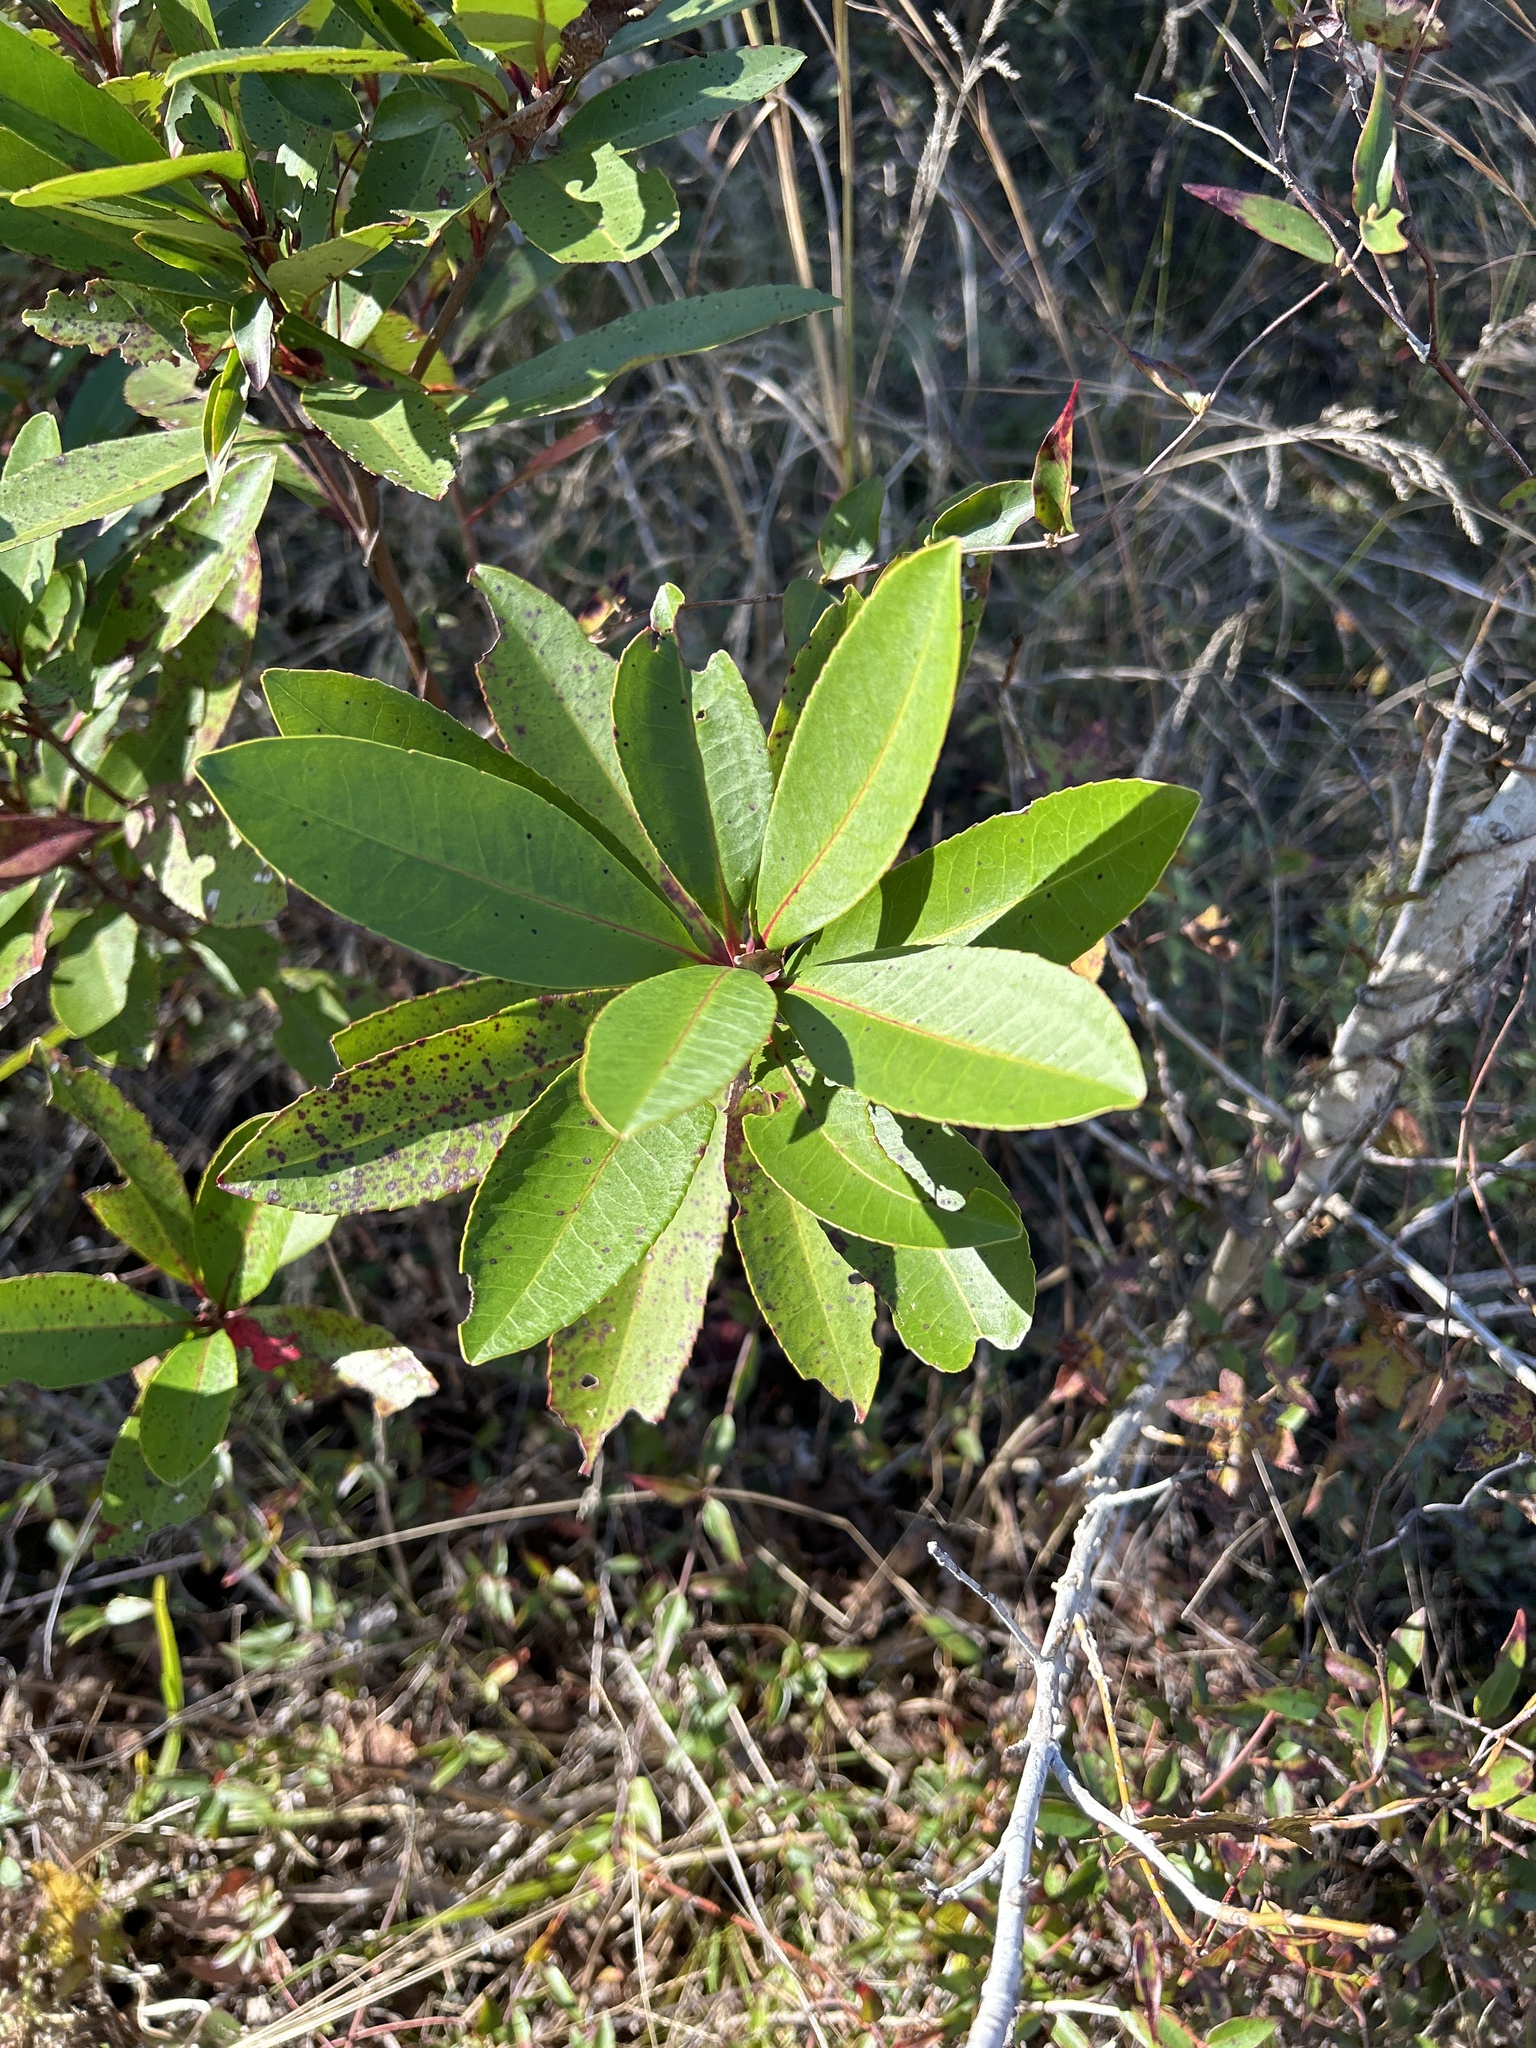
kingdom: Plantae
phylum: Tracheophyta
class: Magnoliopsida
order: Ericales
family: Theaceae
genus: Gordonia
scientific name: Gordonia lasianthus
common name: Loblolly bay
